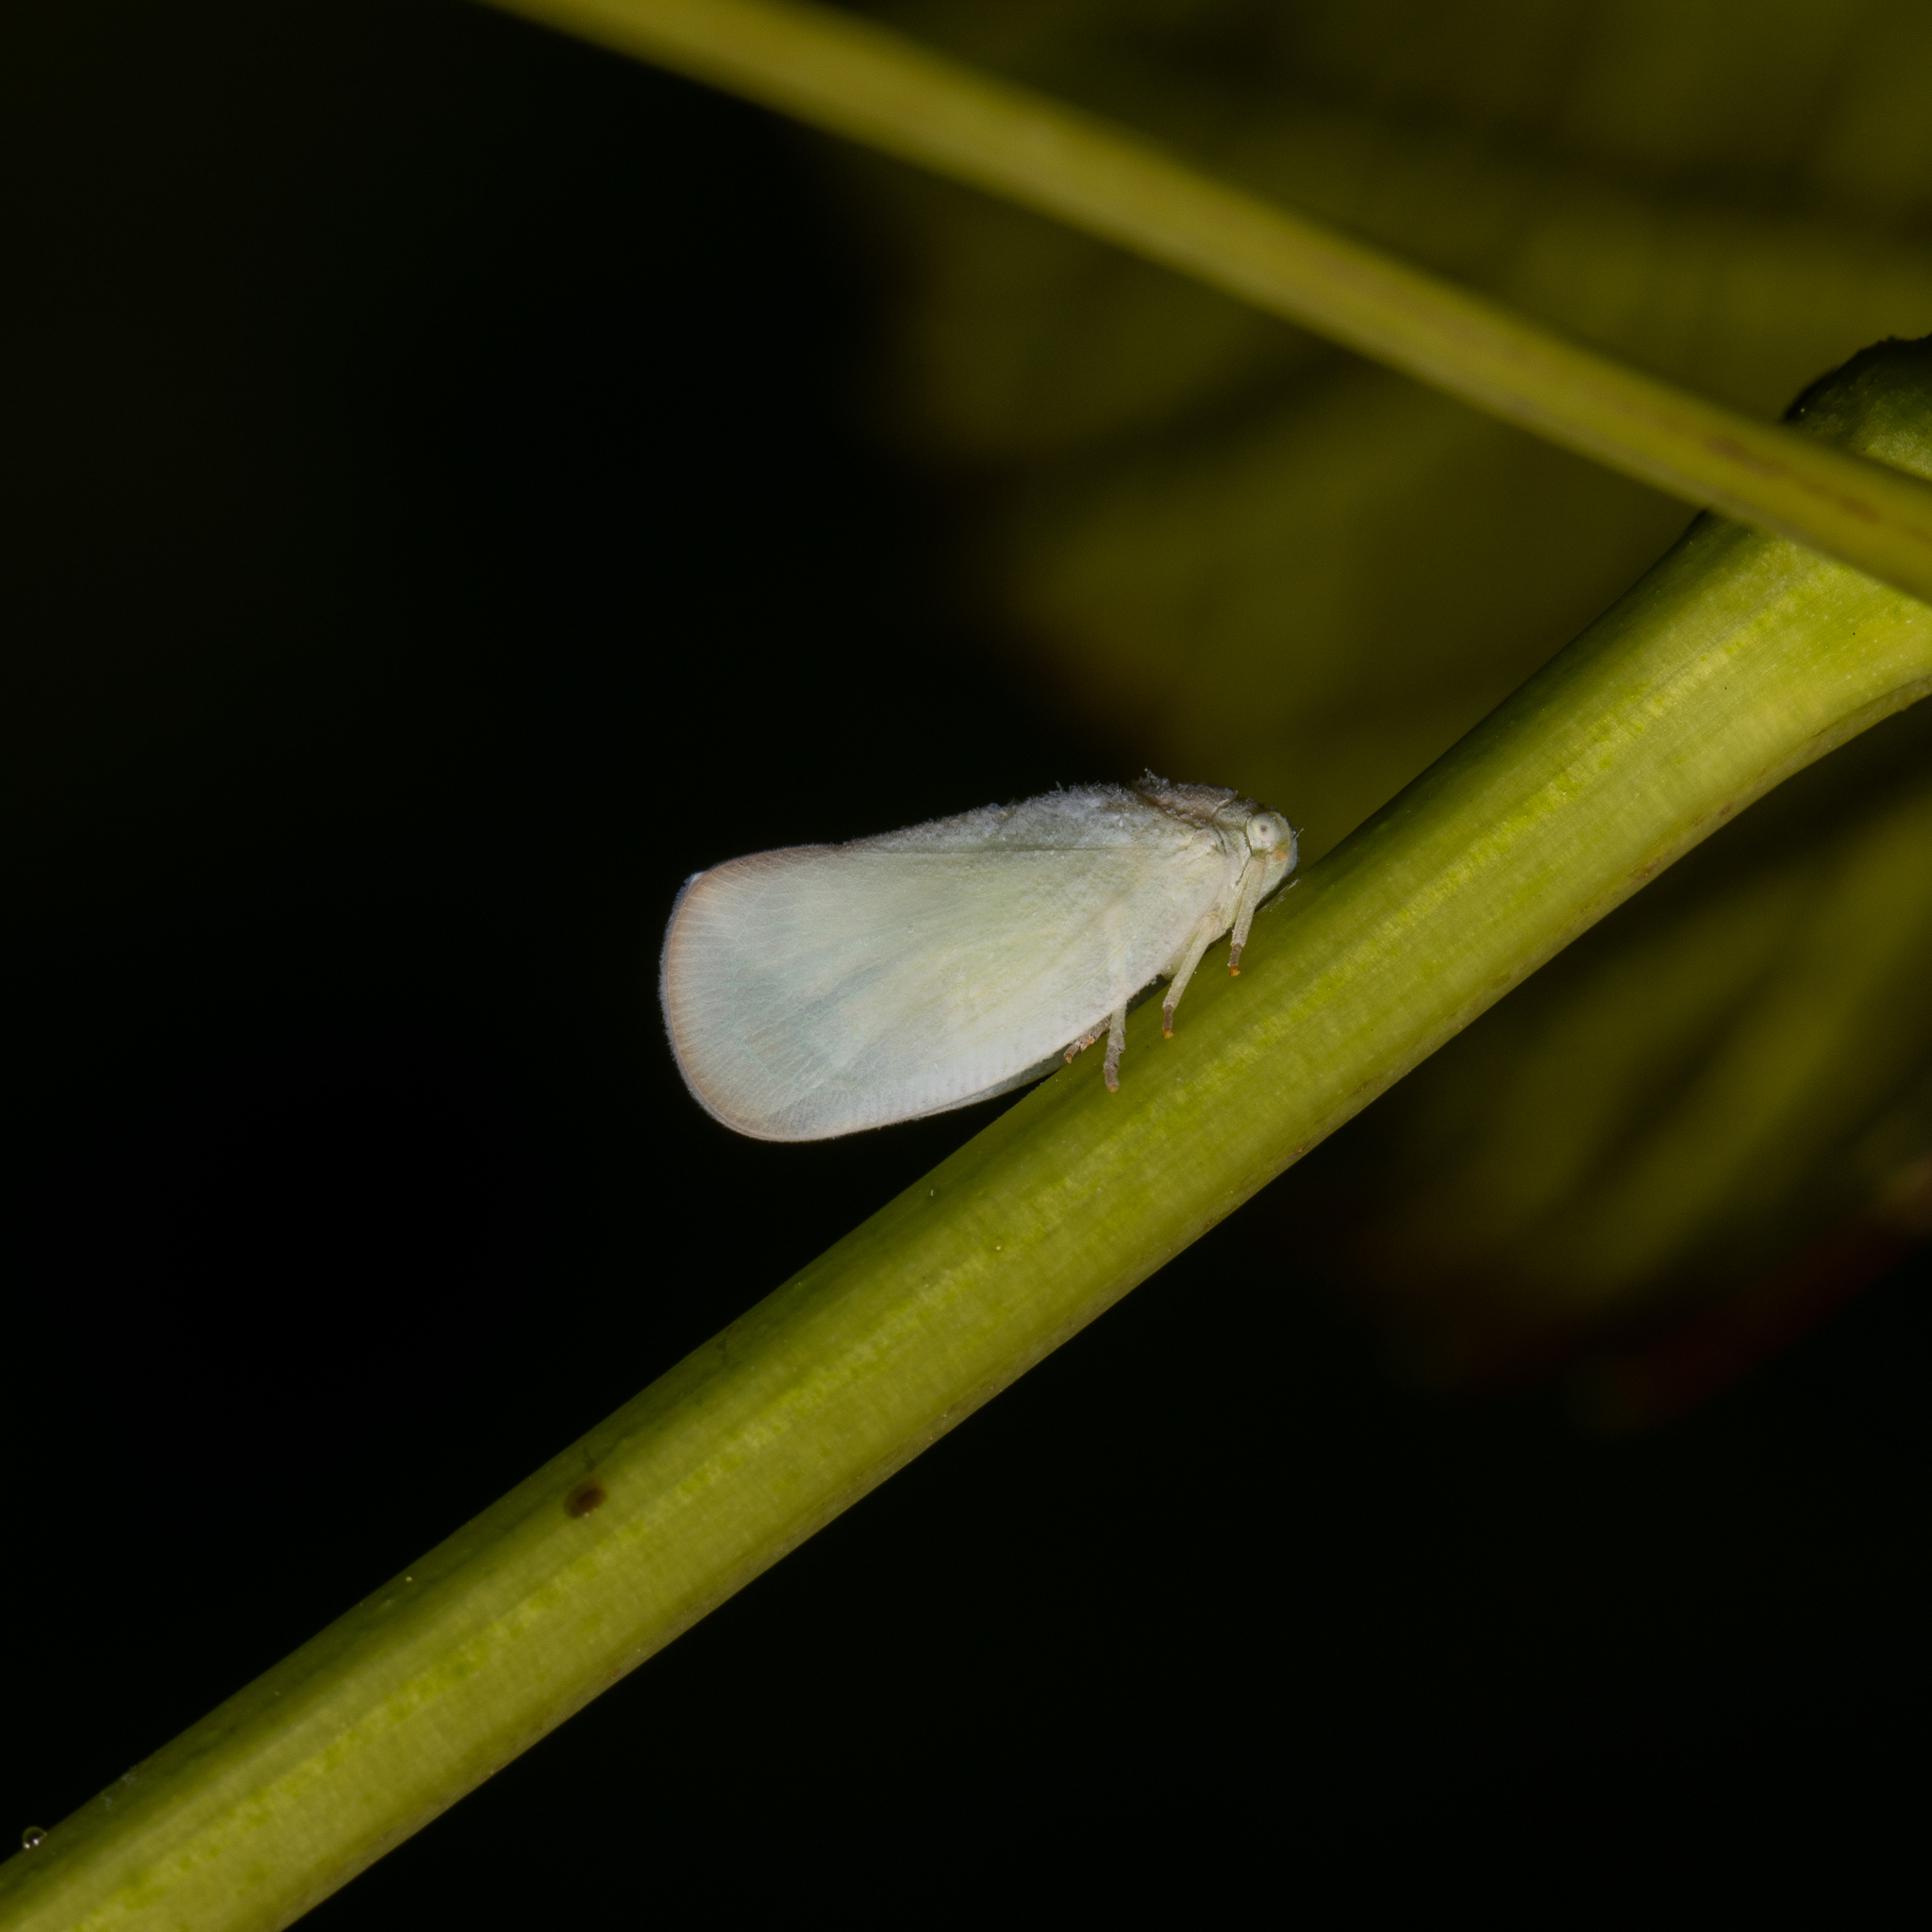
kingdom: Animalia
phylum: Arthropoda
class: Insecta
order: Hemiptera
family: Flatidae
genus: Ormenoides
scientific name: Ormenoides venusta
